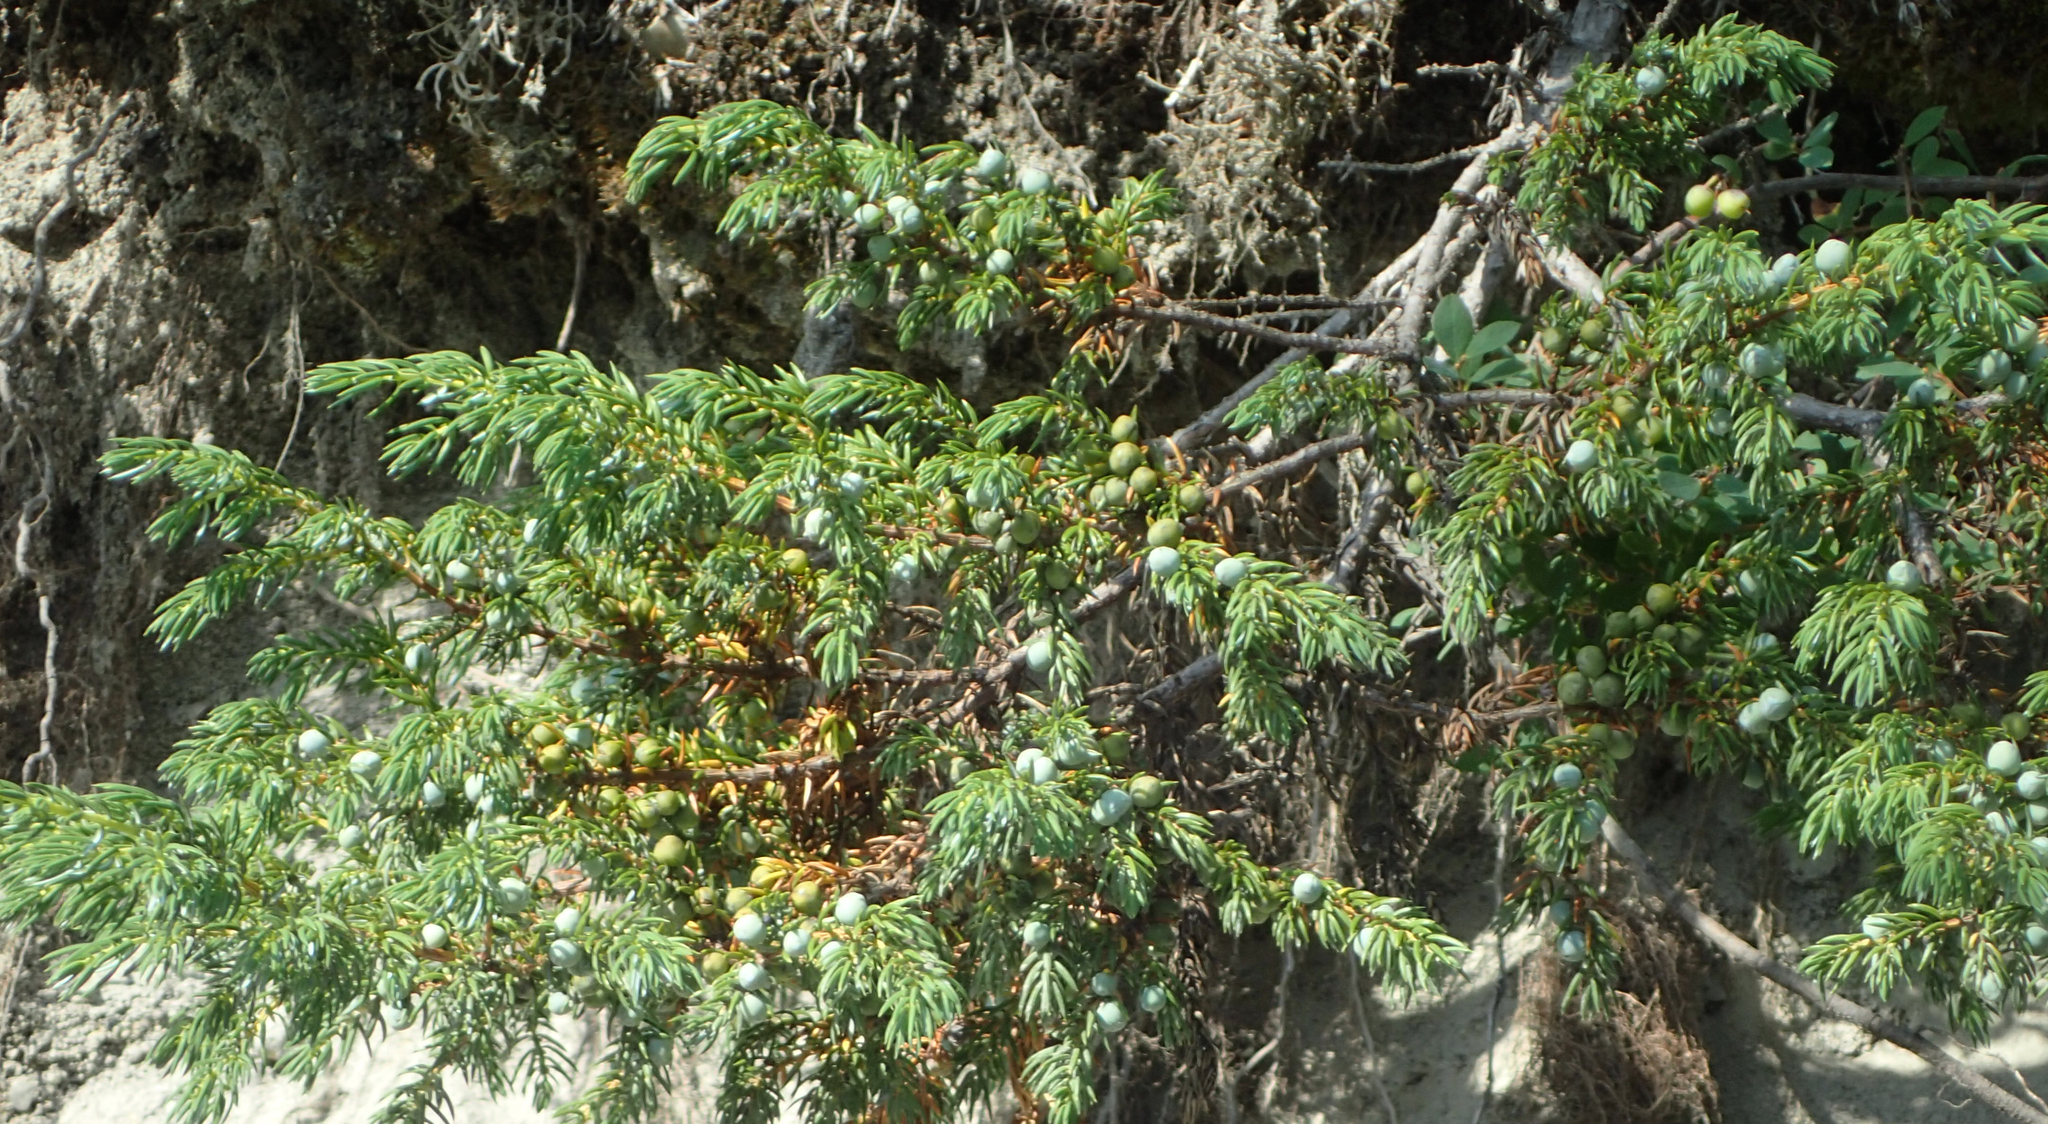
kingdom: Plantae
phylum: Tracheophyta
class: Pinopsida
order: Pinales
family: Cupressaceae
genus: Juniperus
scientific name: Juniperus communis
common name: Common juniper
